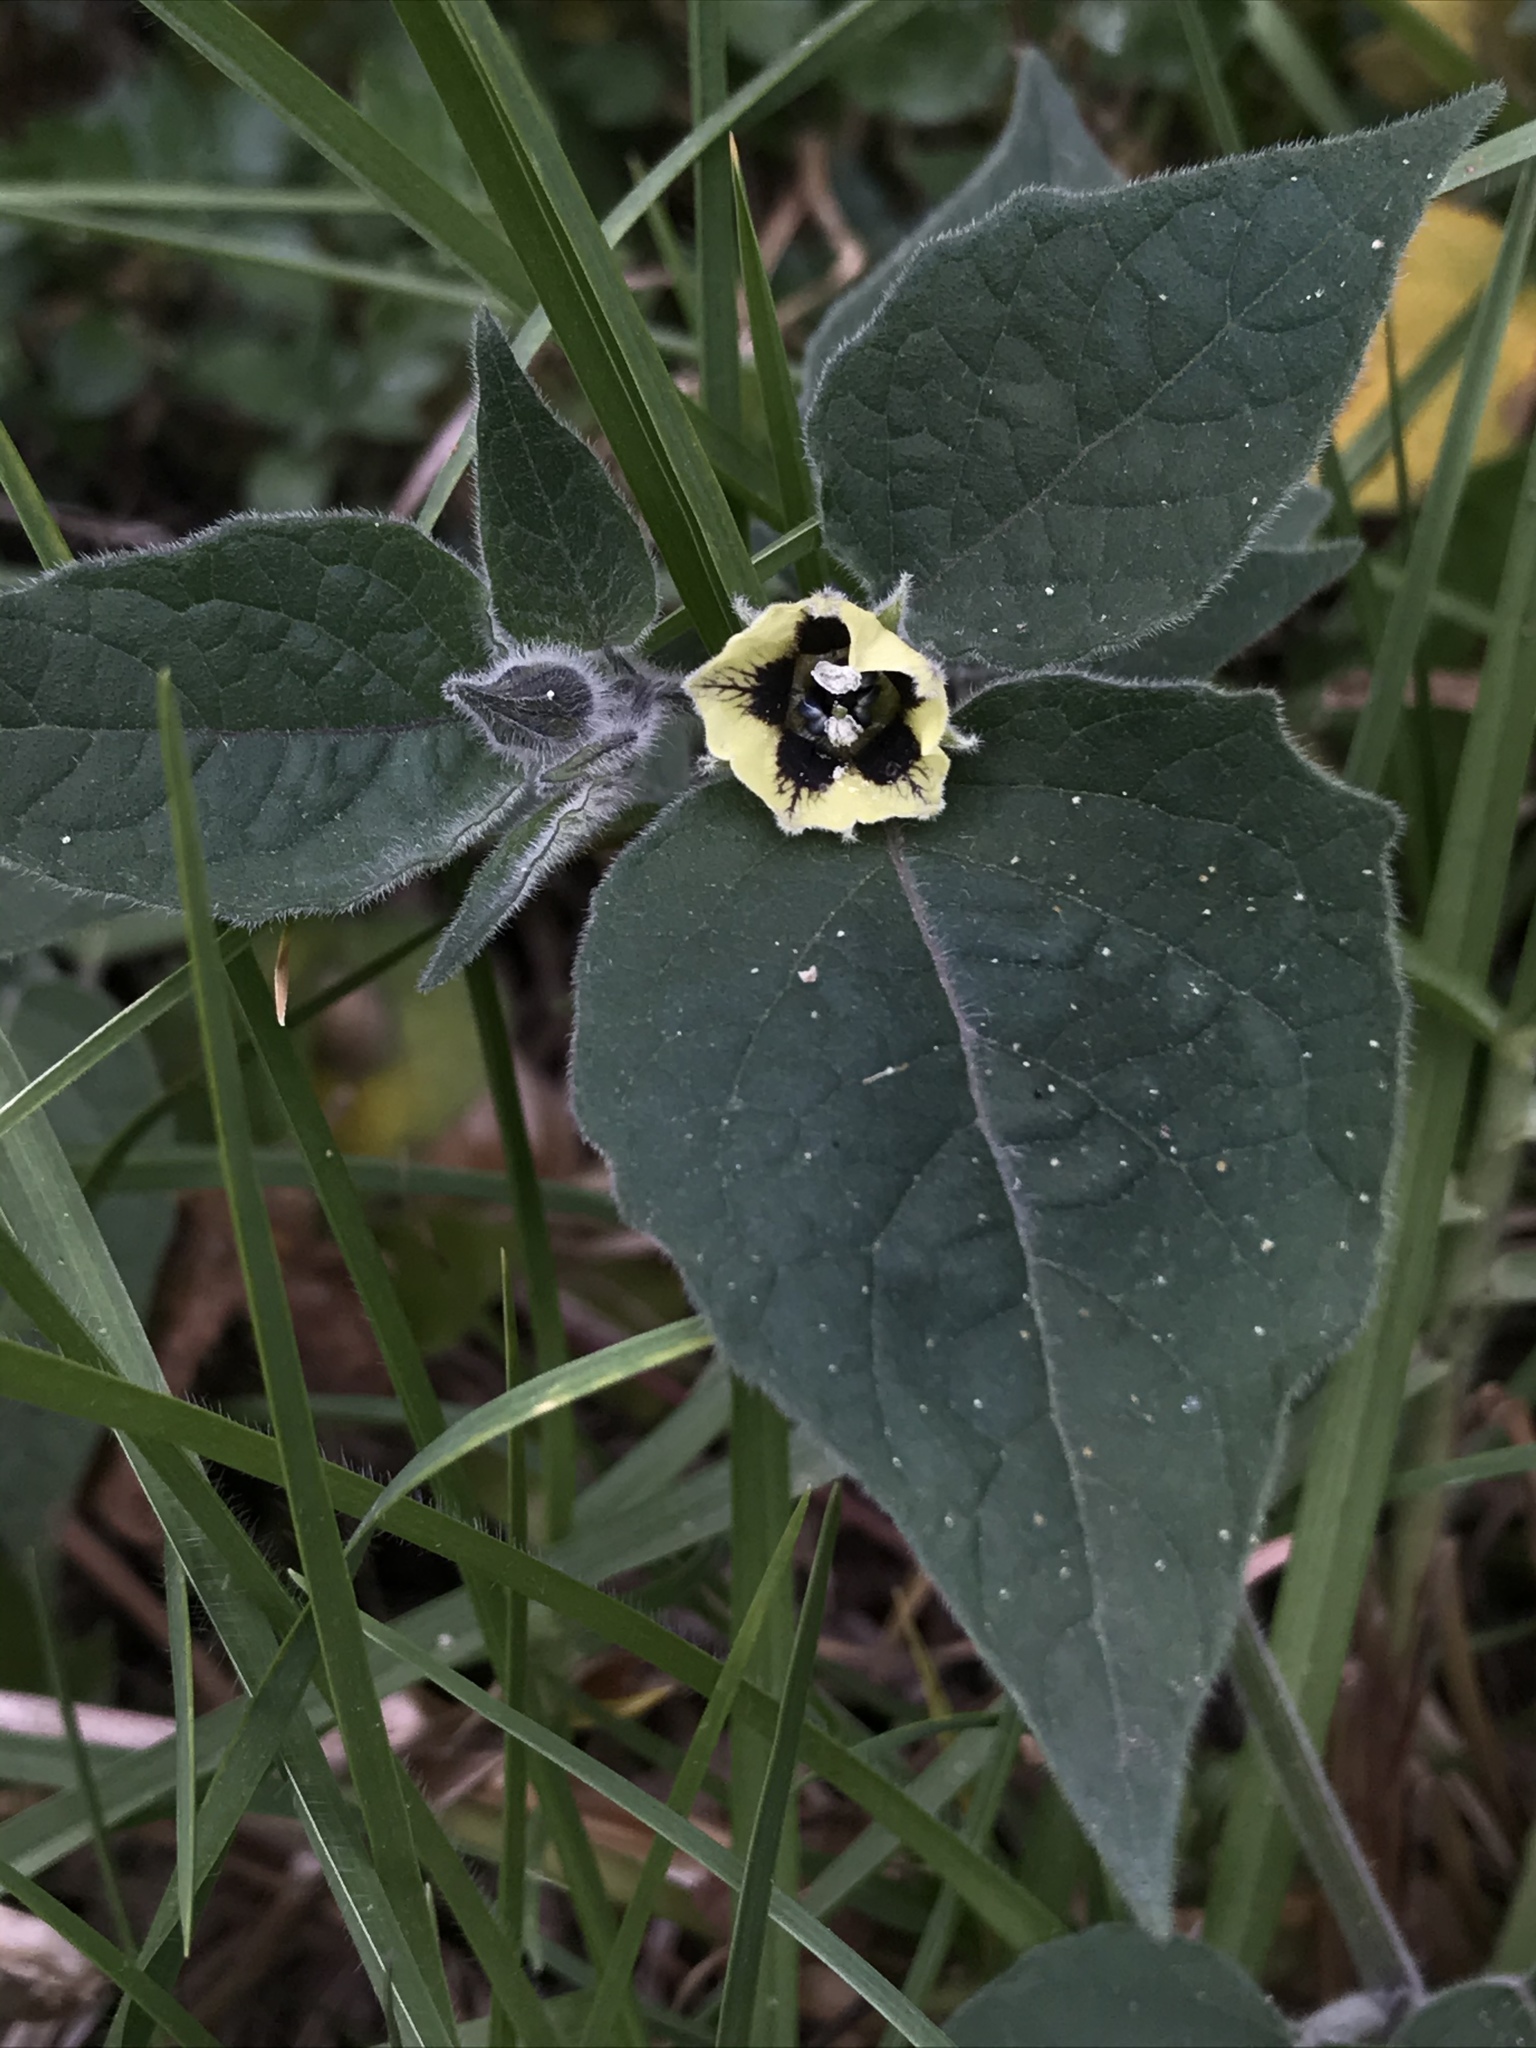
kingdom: Plantae
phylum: Tracheophyta
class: Magnoliopsida
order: Solanales
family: Solanaceae
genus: Physalis
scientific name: Physalis peruviana
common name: Cape-gooseberry
